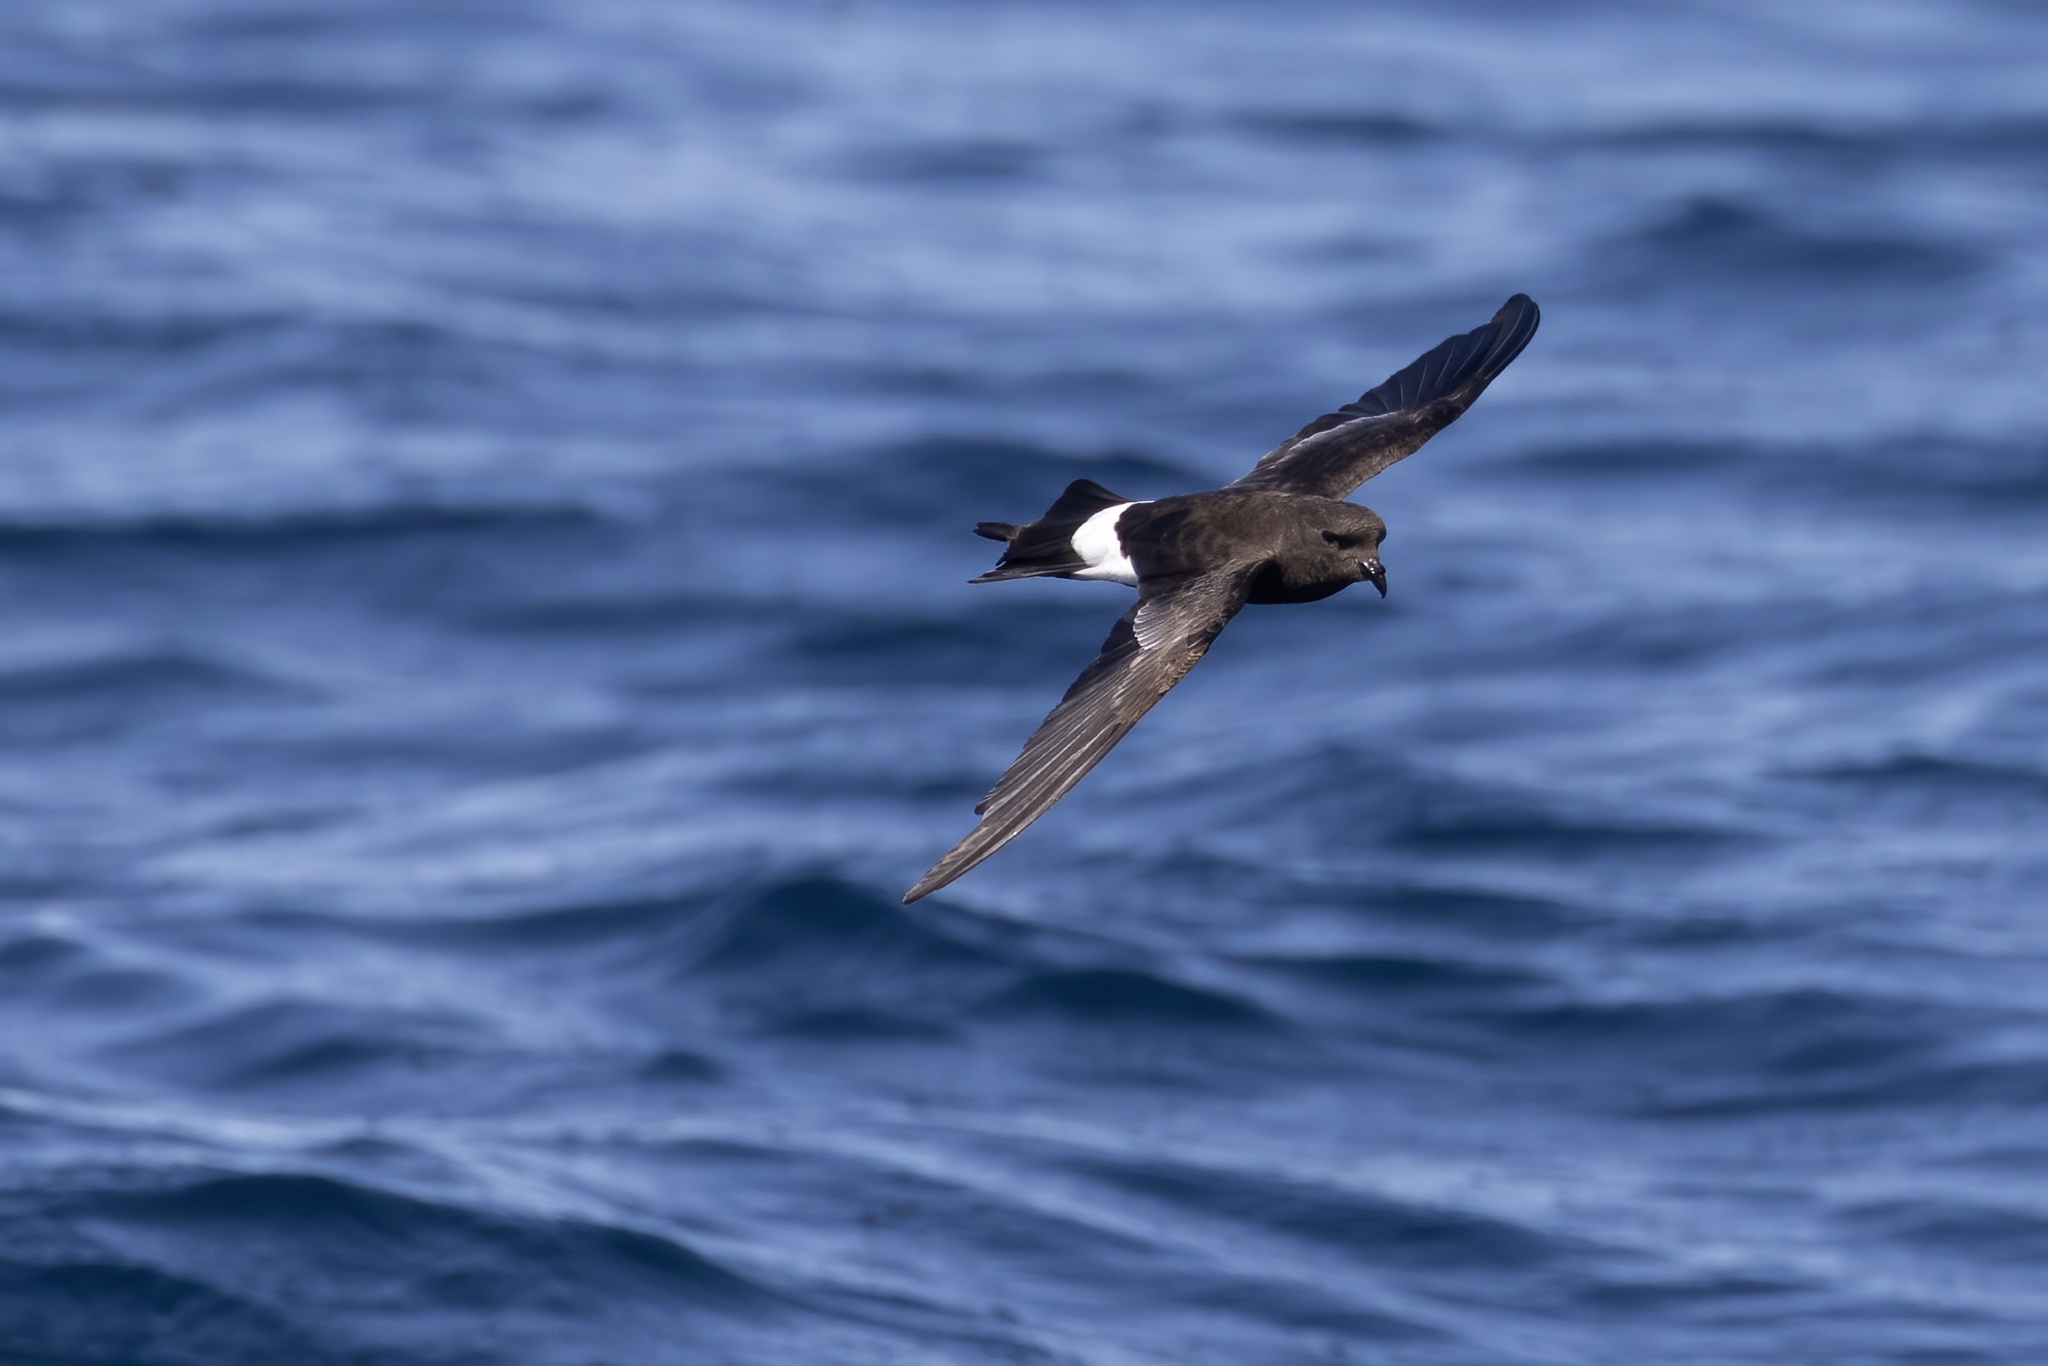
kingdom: Animalia
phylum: Chordata
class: Aves
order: Procellariiformes
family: Hydrobatidae
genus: Oceanites
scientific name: Oceanites oceanicus
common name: Wilson's storm petrel
